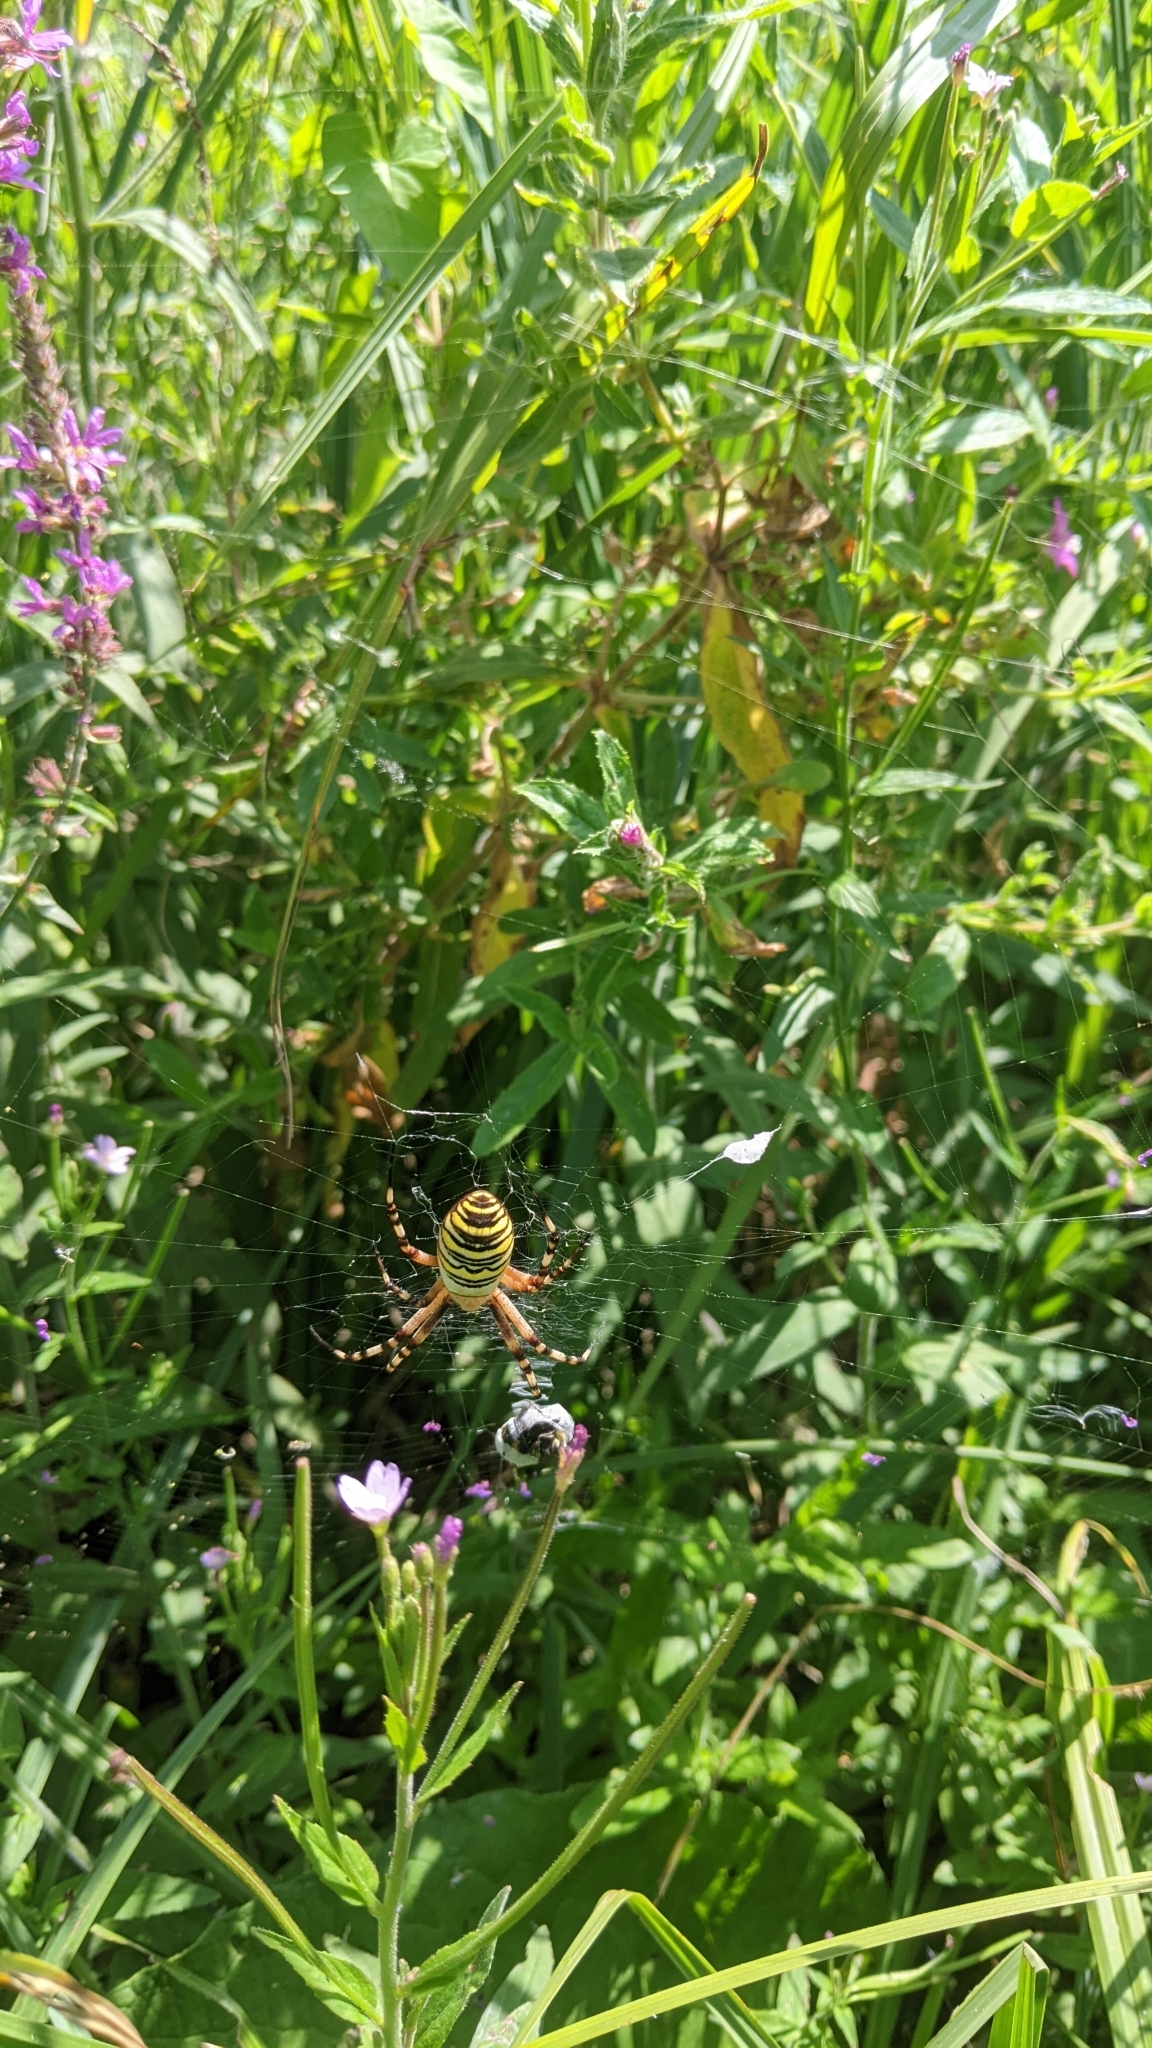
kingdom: Animalia
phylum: Arthropoda
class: Arachnida
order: Araneae
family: Araneidae
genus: Argiope
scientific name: Argiope bruennichi
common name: Wasp spider
